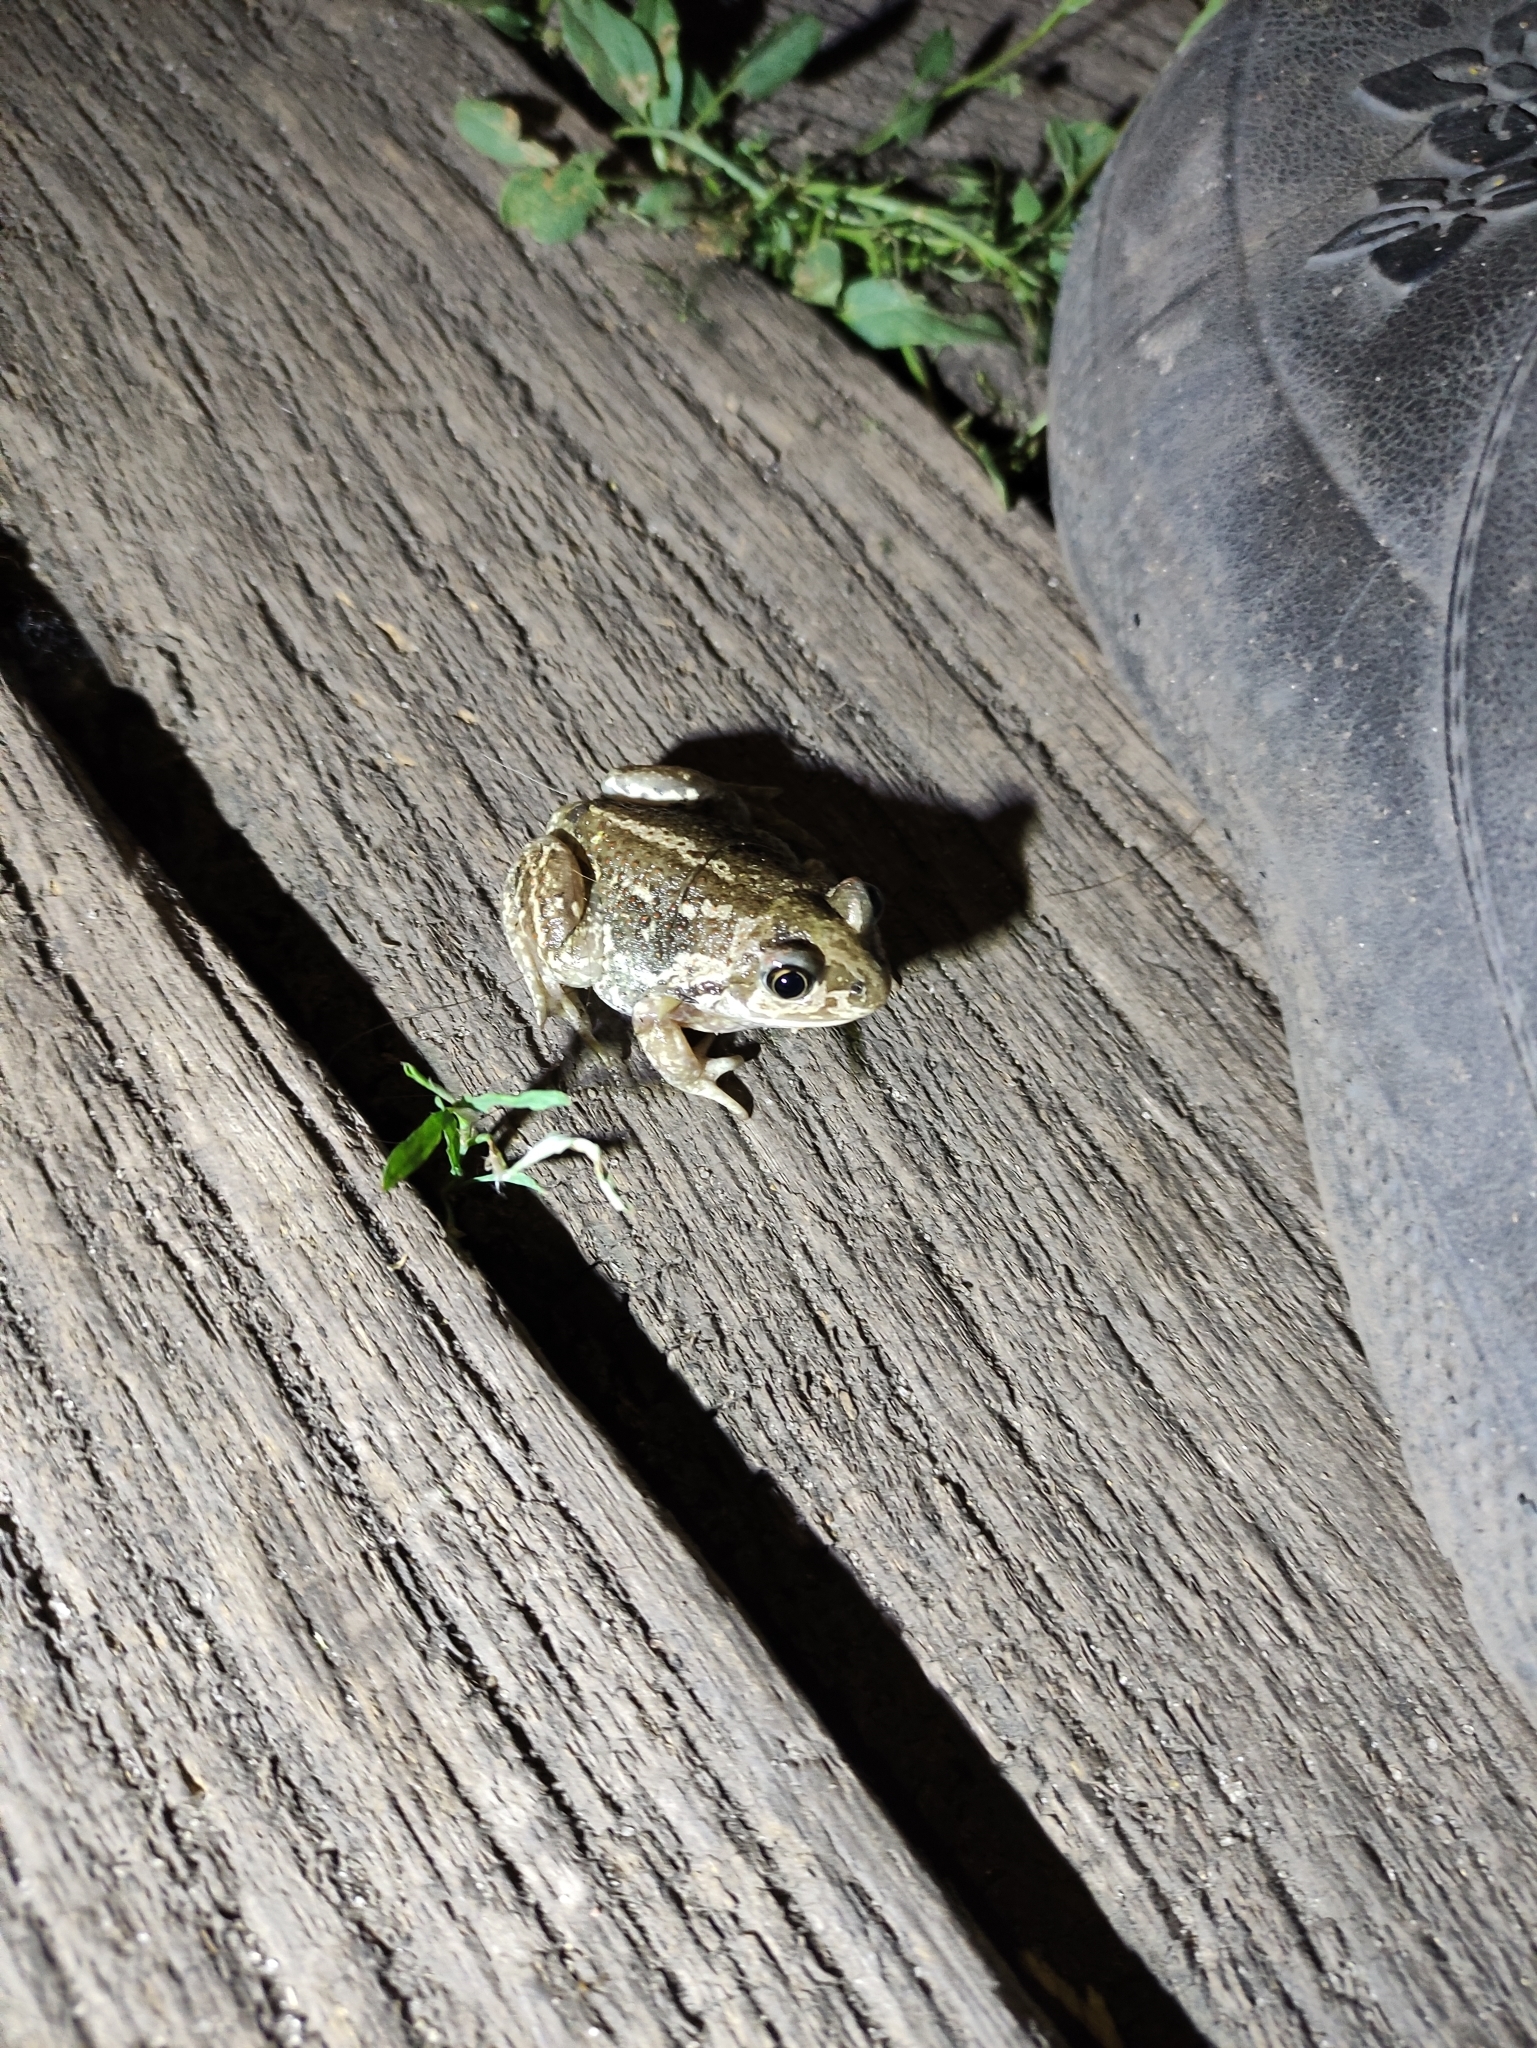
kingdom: Animalia
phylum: Chordata
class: Amphibia
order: Anura
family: Pelobatidae
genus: Pelobates
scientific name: Pelobates vespertinus
